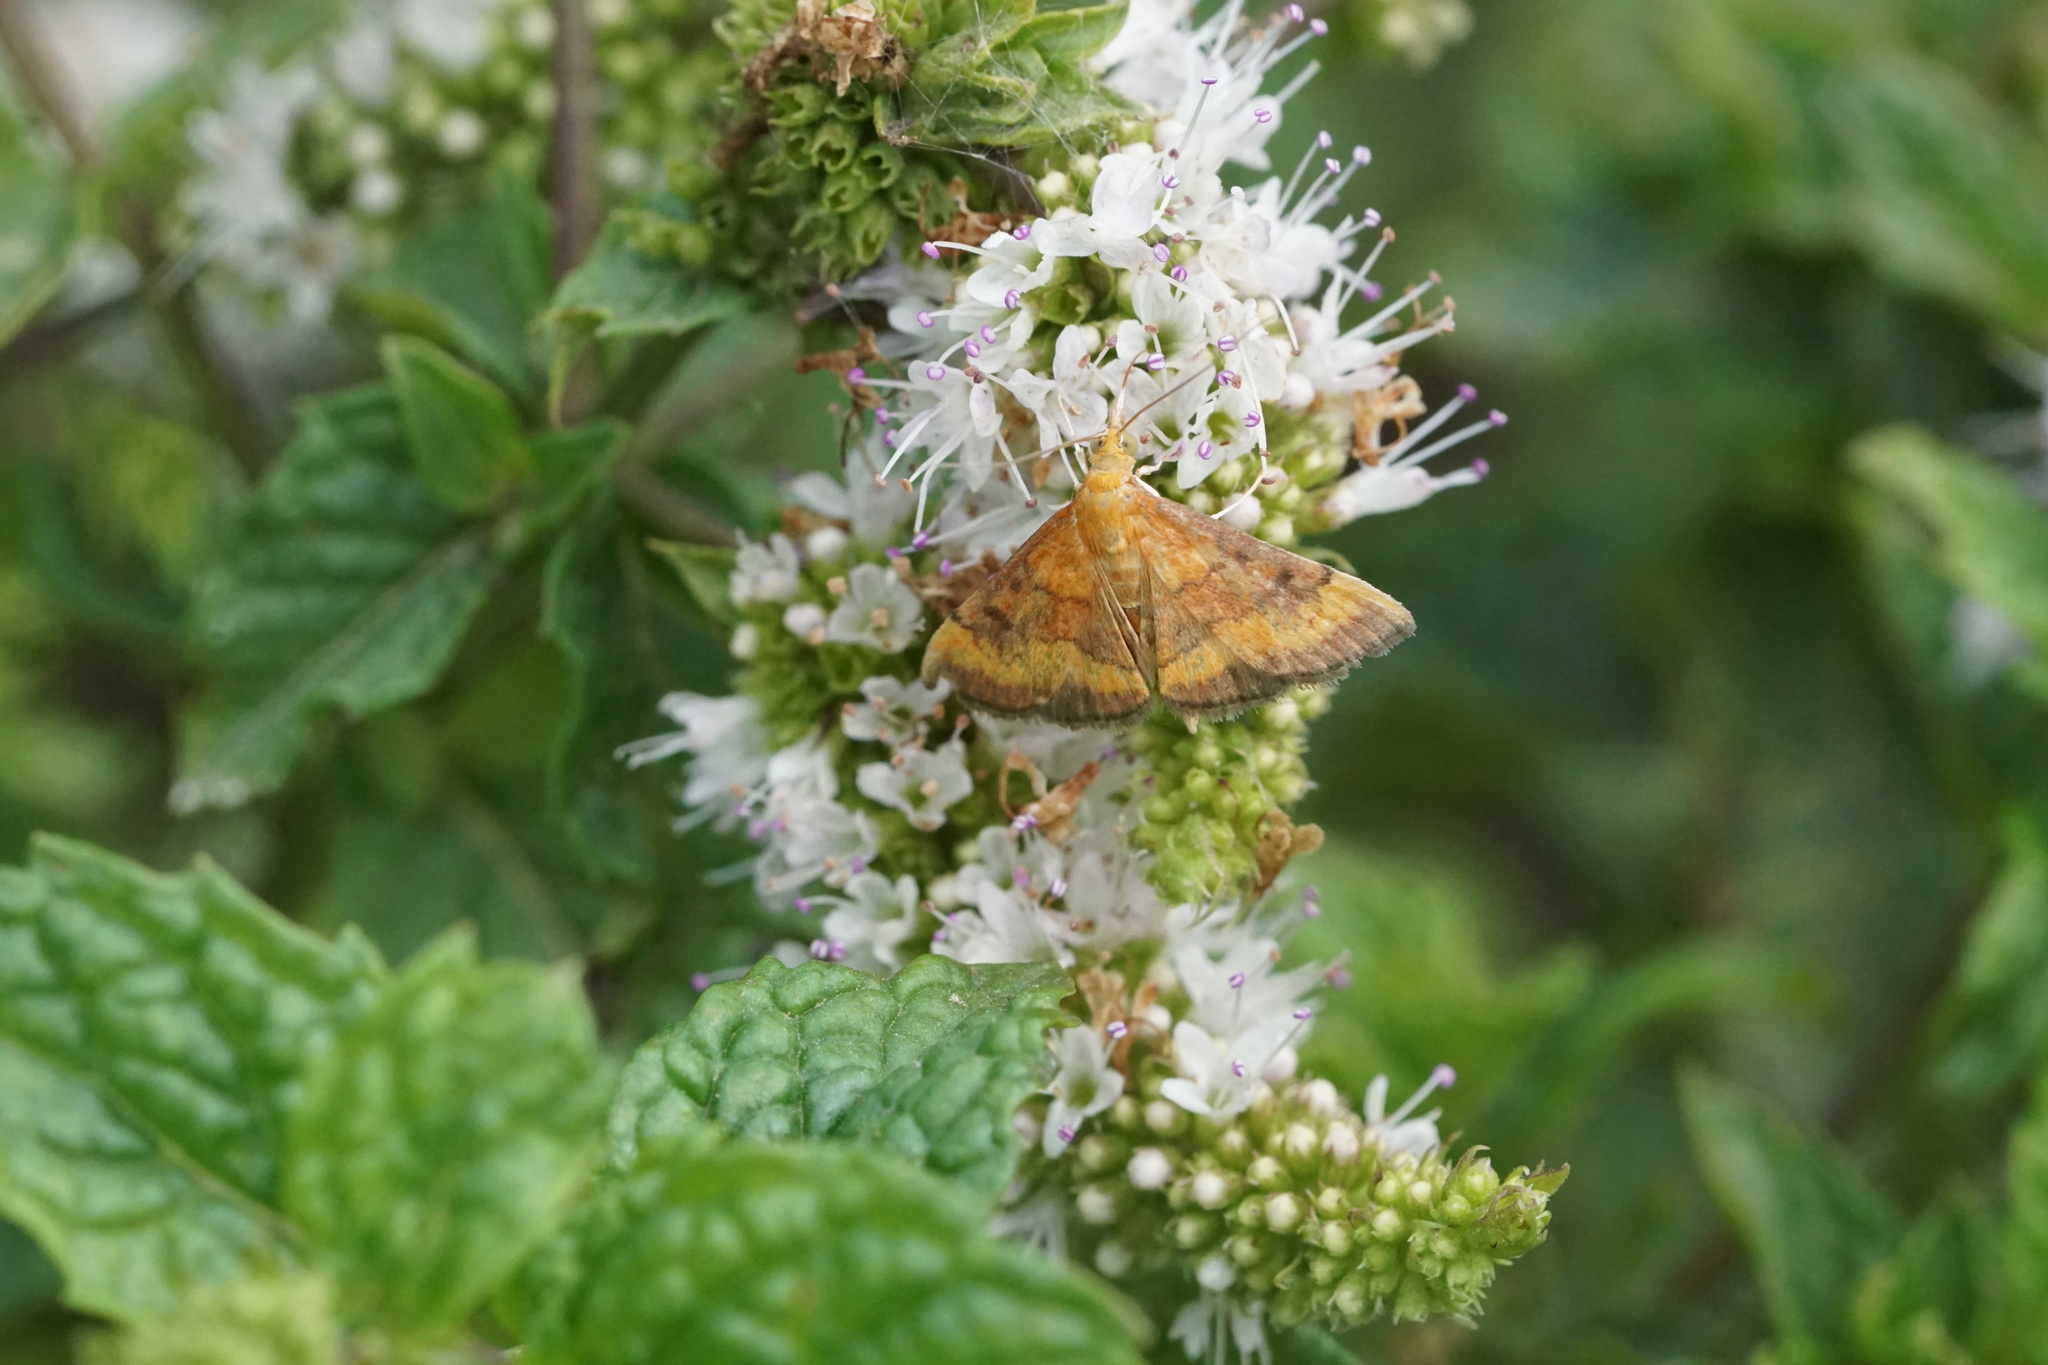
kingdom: Animalia
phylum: Arthropoda
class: Insecta
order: Lepidoptera
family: Crambidae
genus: Pyrausta
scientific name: Pyrausta rubricalis
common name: Variable reddish pyrausta
